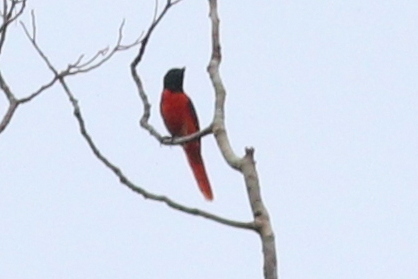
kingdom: Animalia
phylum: Chordata
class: Aves
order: Passeriformes
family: Campephagidae
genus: Pericrocotus
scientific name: Pericrocotus speciosus
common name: Scarlet minivet
